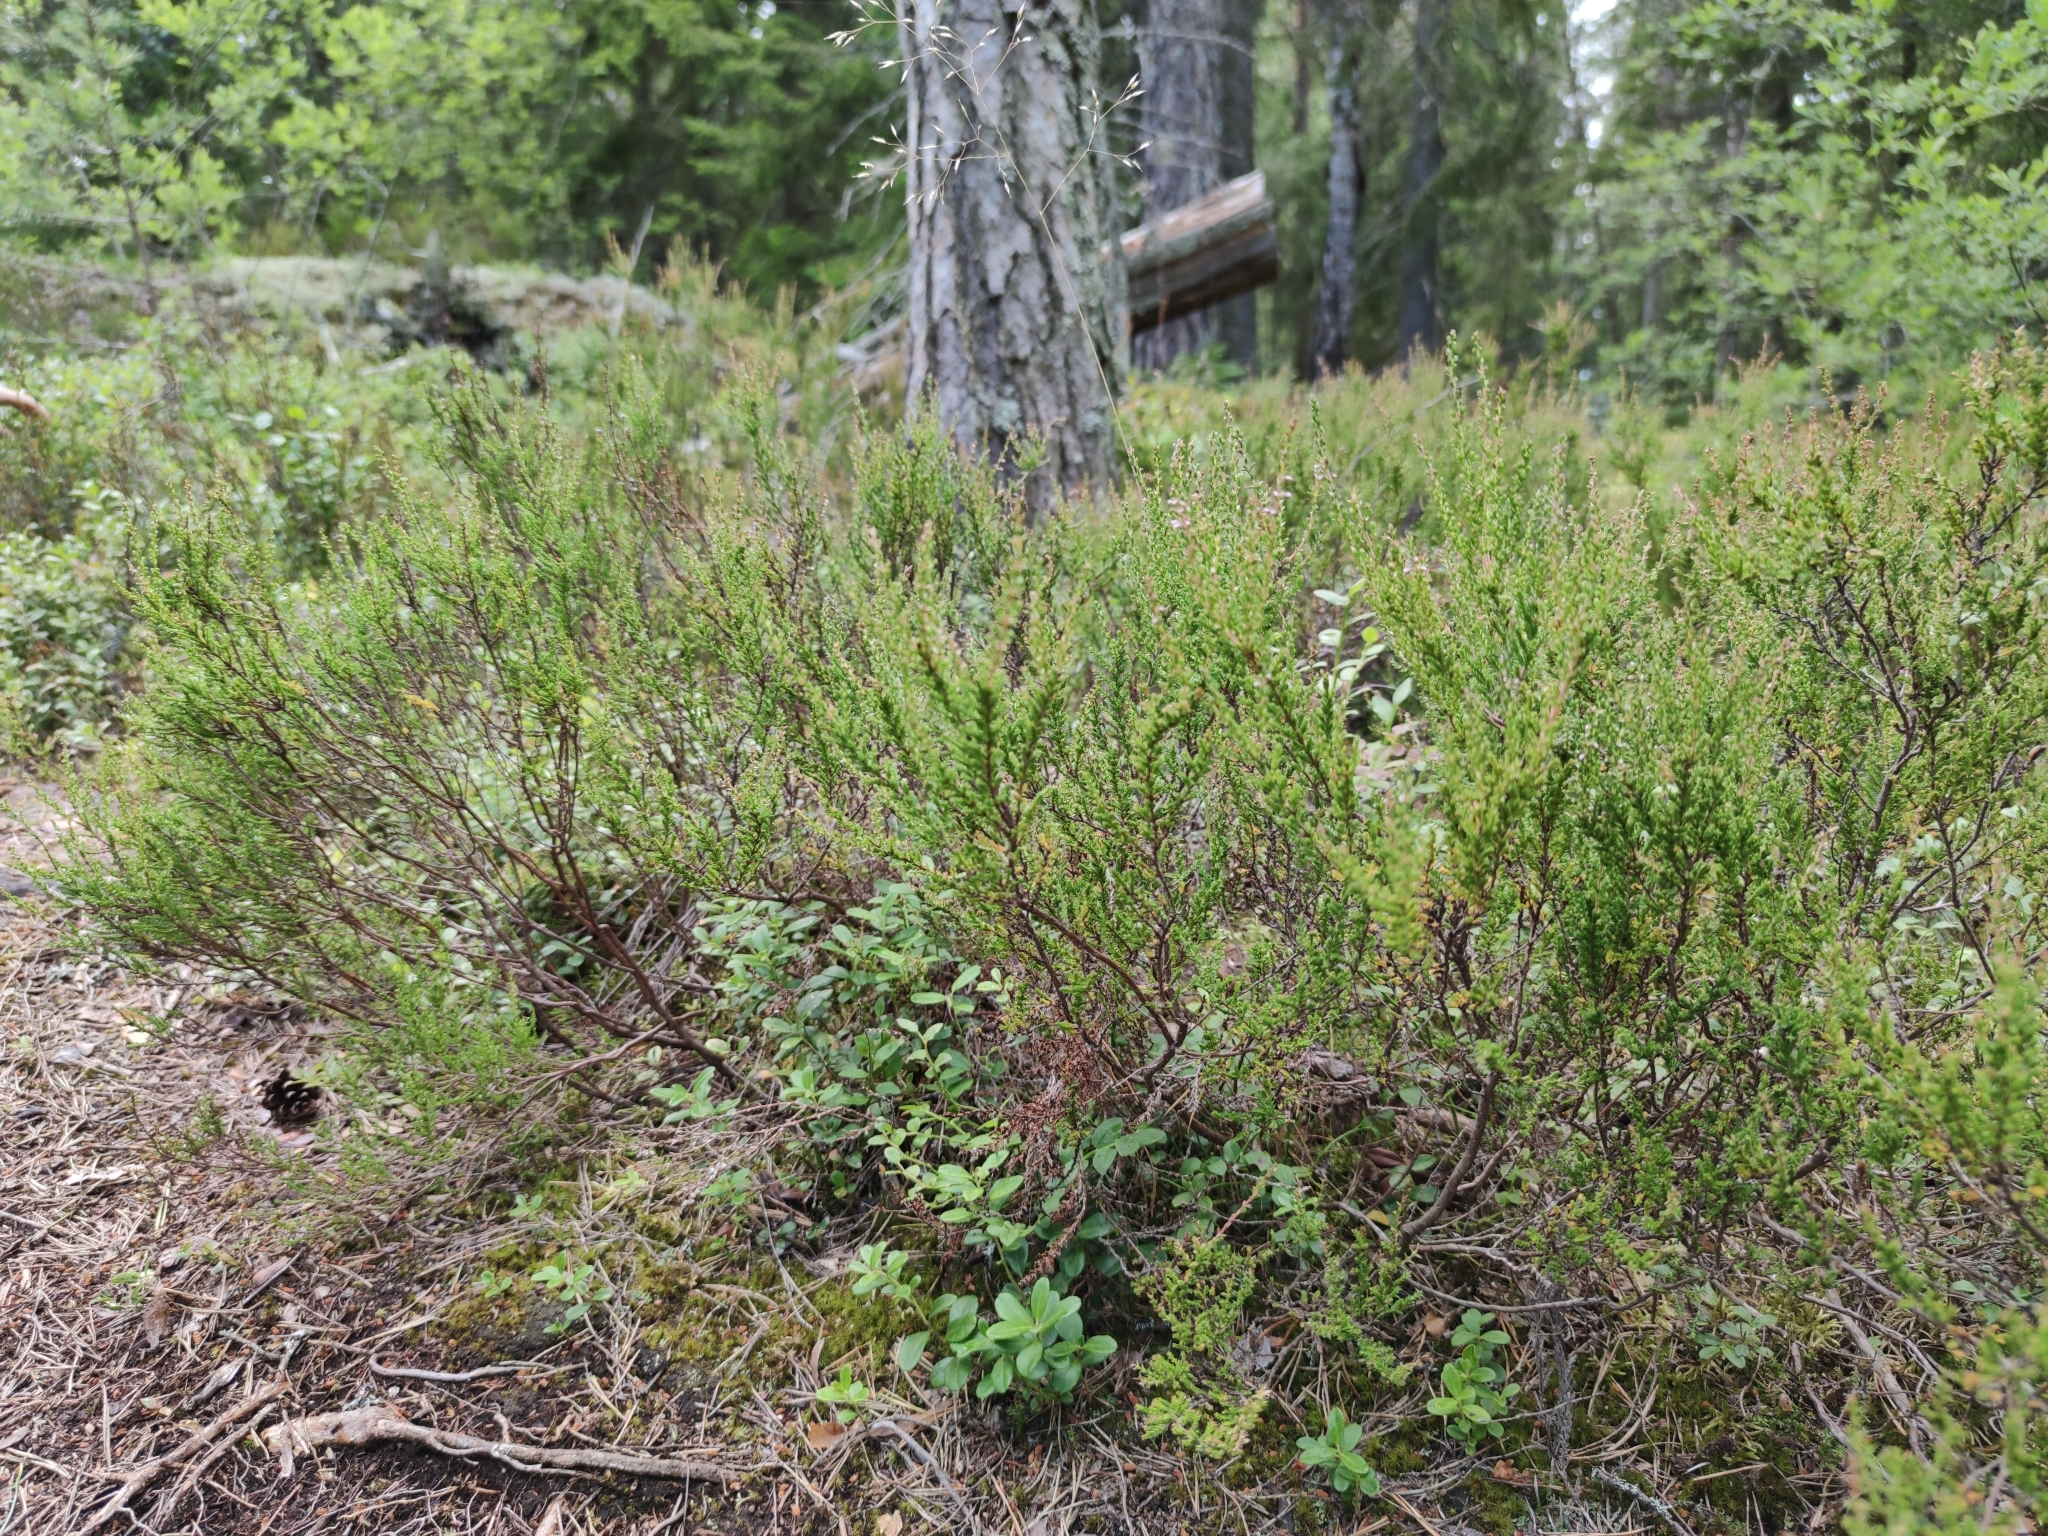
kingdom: Plantae
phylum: Tracheophyta
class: Magnoliopsida
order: Ericales
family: Ericaceae
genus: Calluna
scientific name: Calluna vulgaris
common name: Heather
